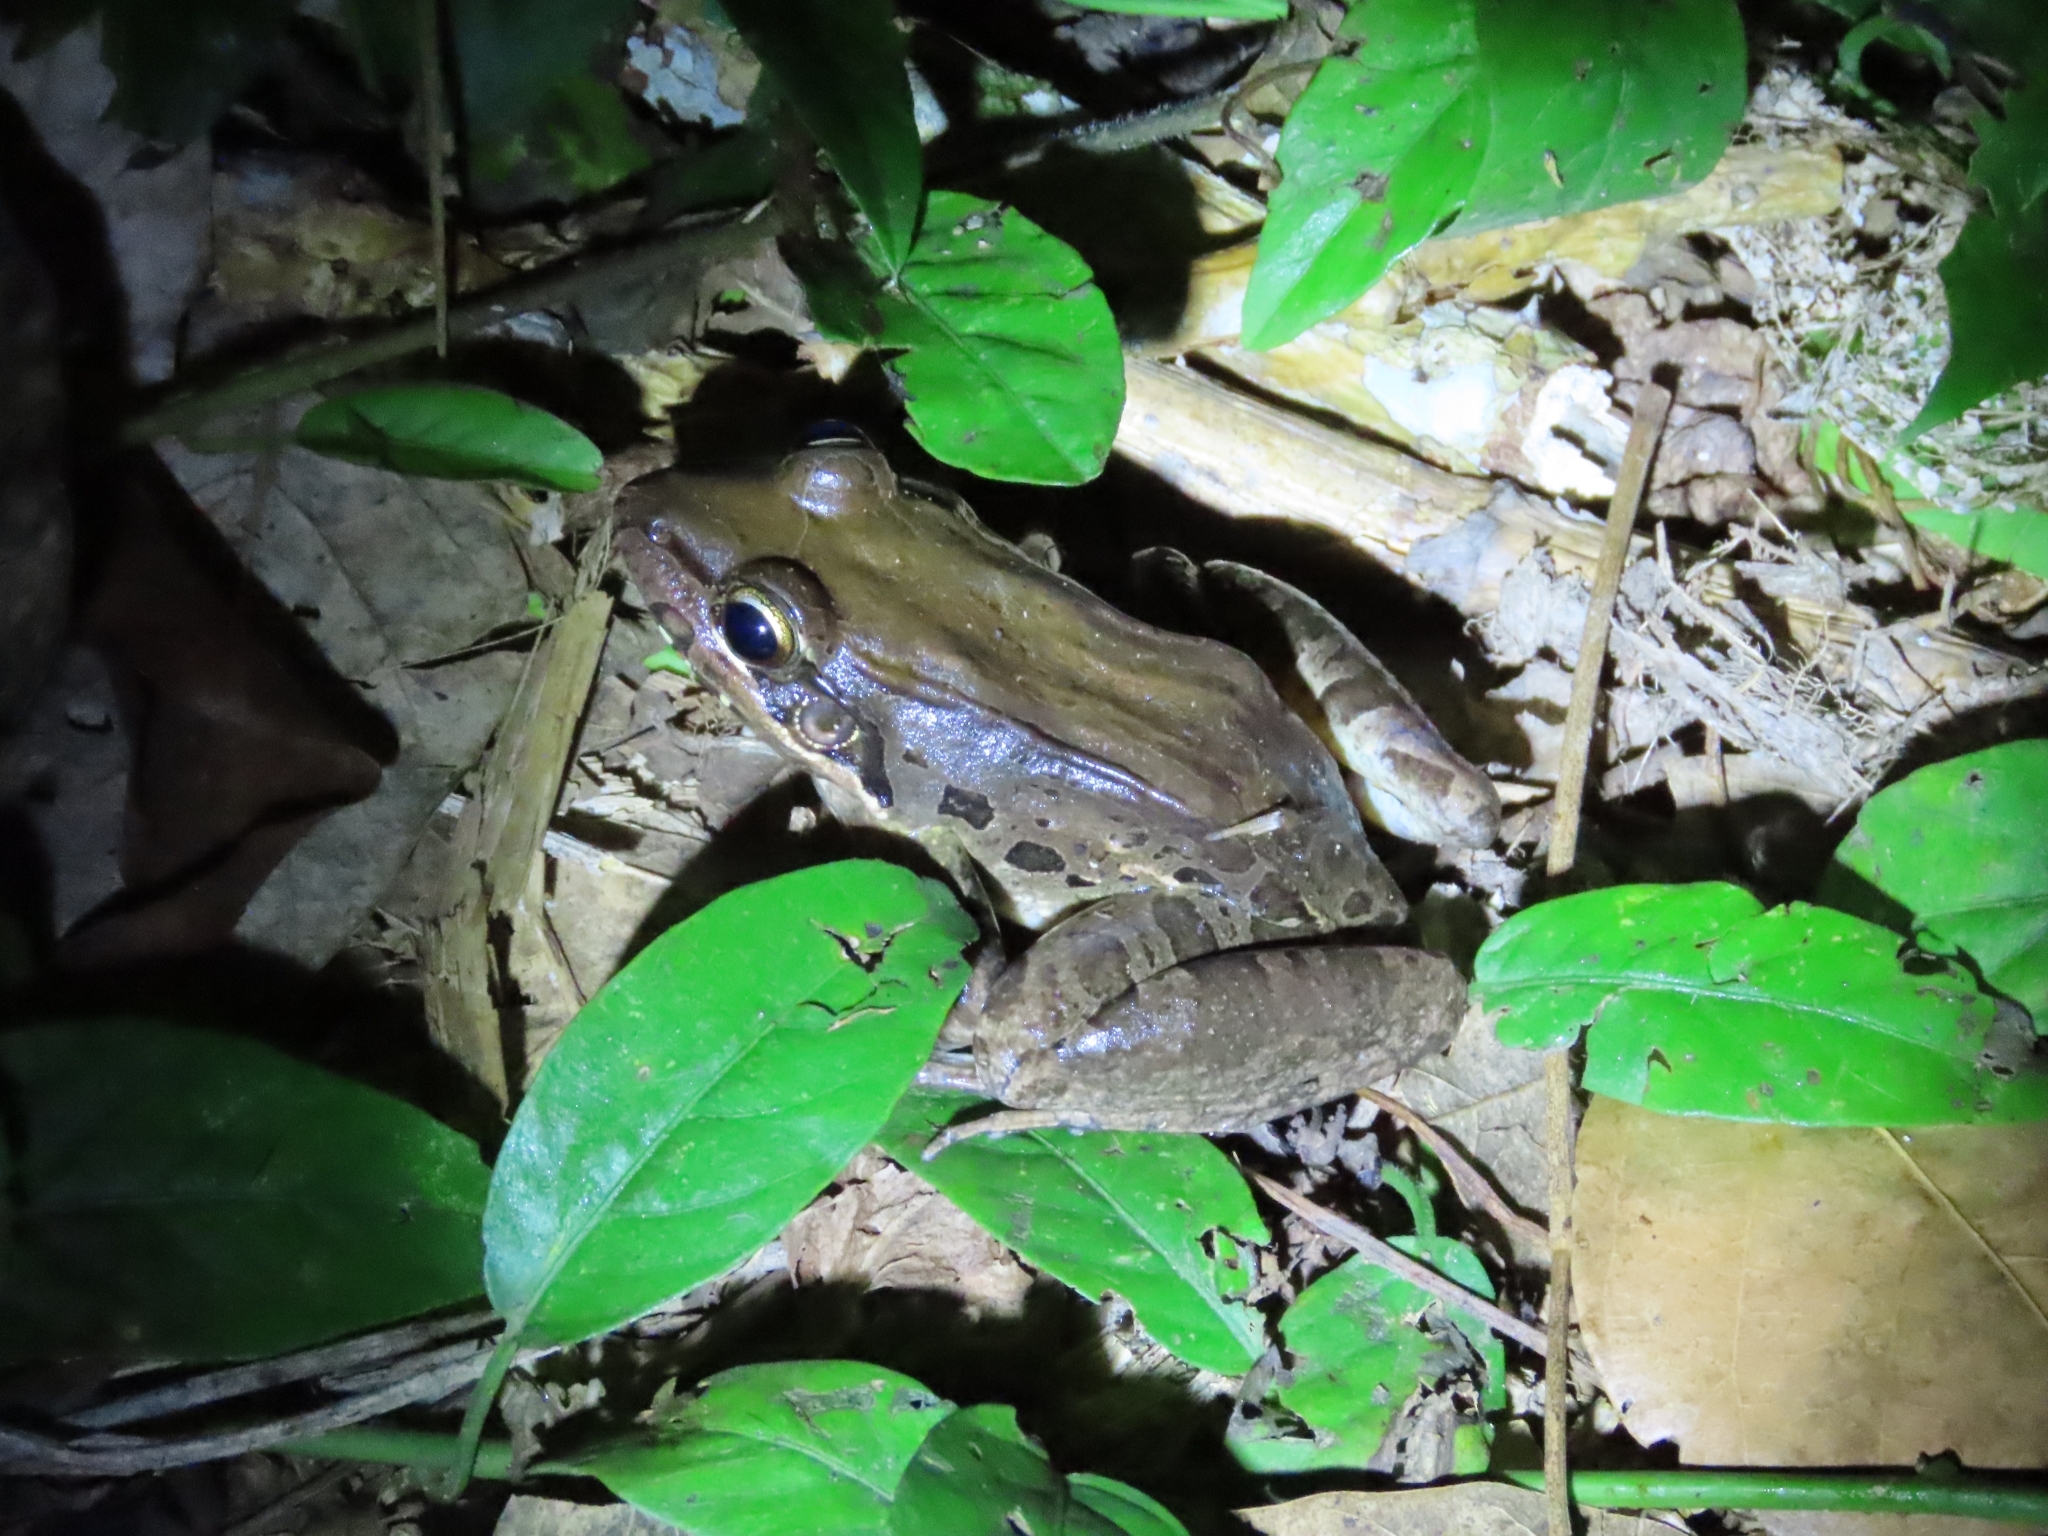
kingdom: Animalia
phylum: Chordata
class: Amphibia
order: Anura
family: Leptodactylidae
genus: Leptodactylus
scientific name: Leptodactylus insularum
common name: San miguel island frog
